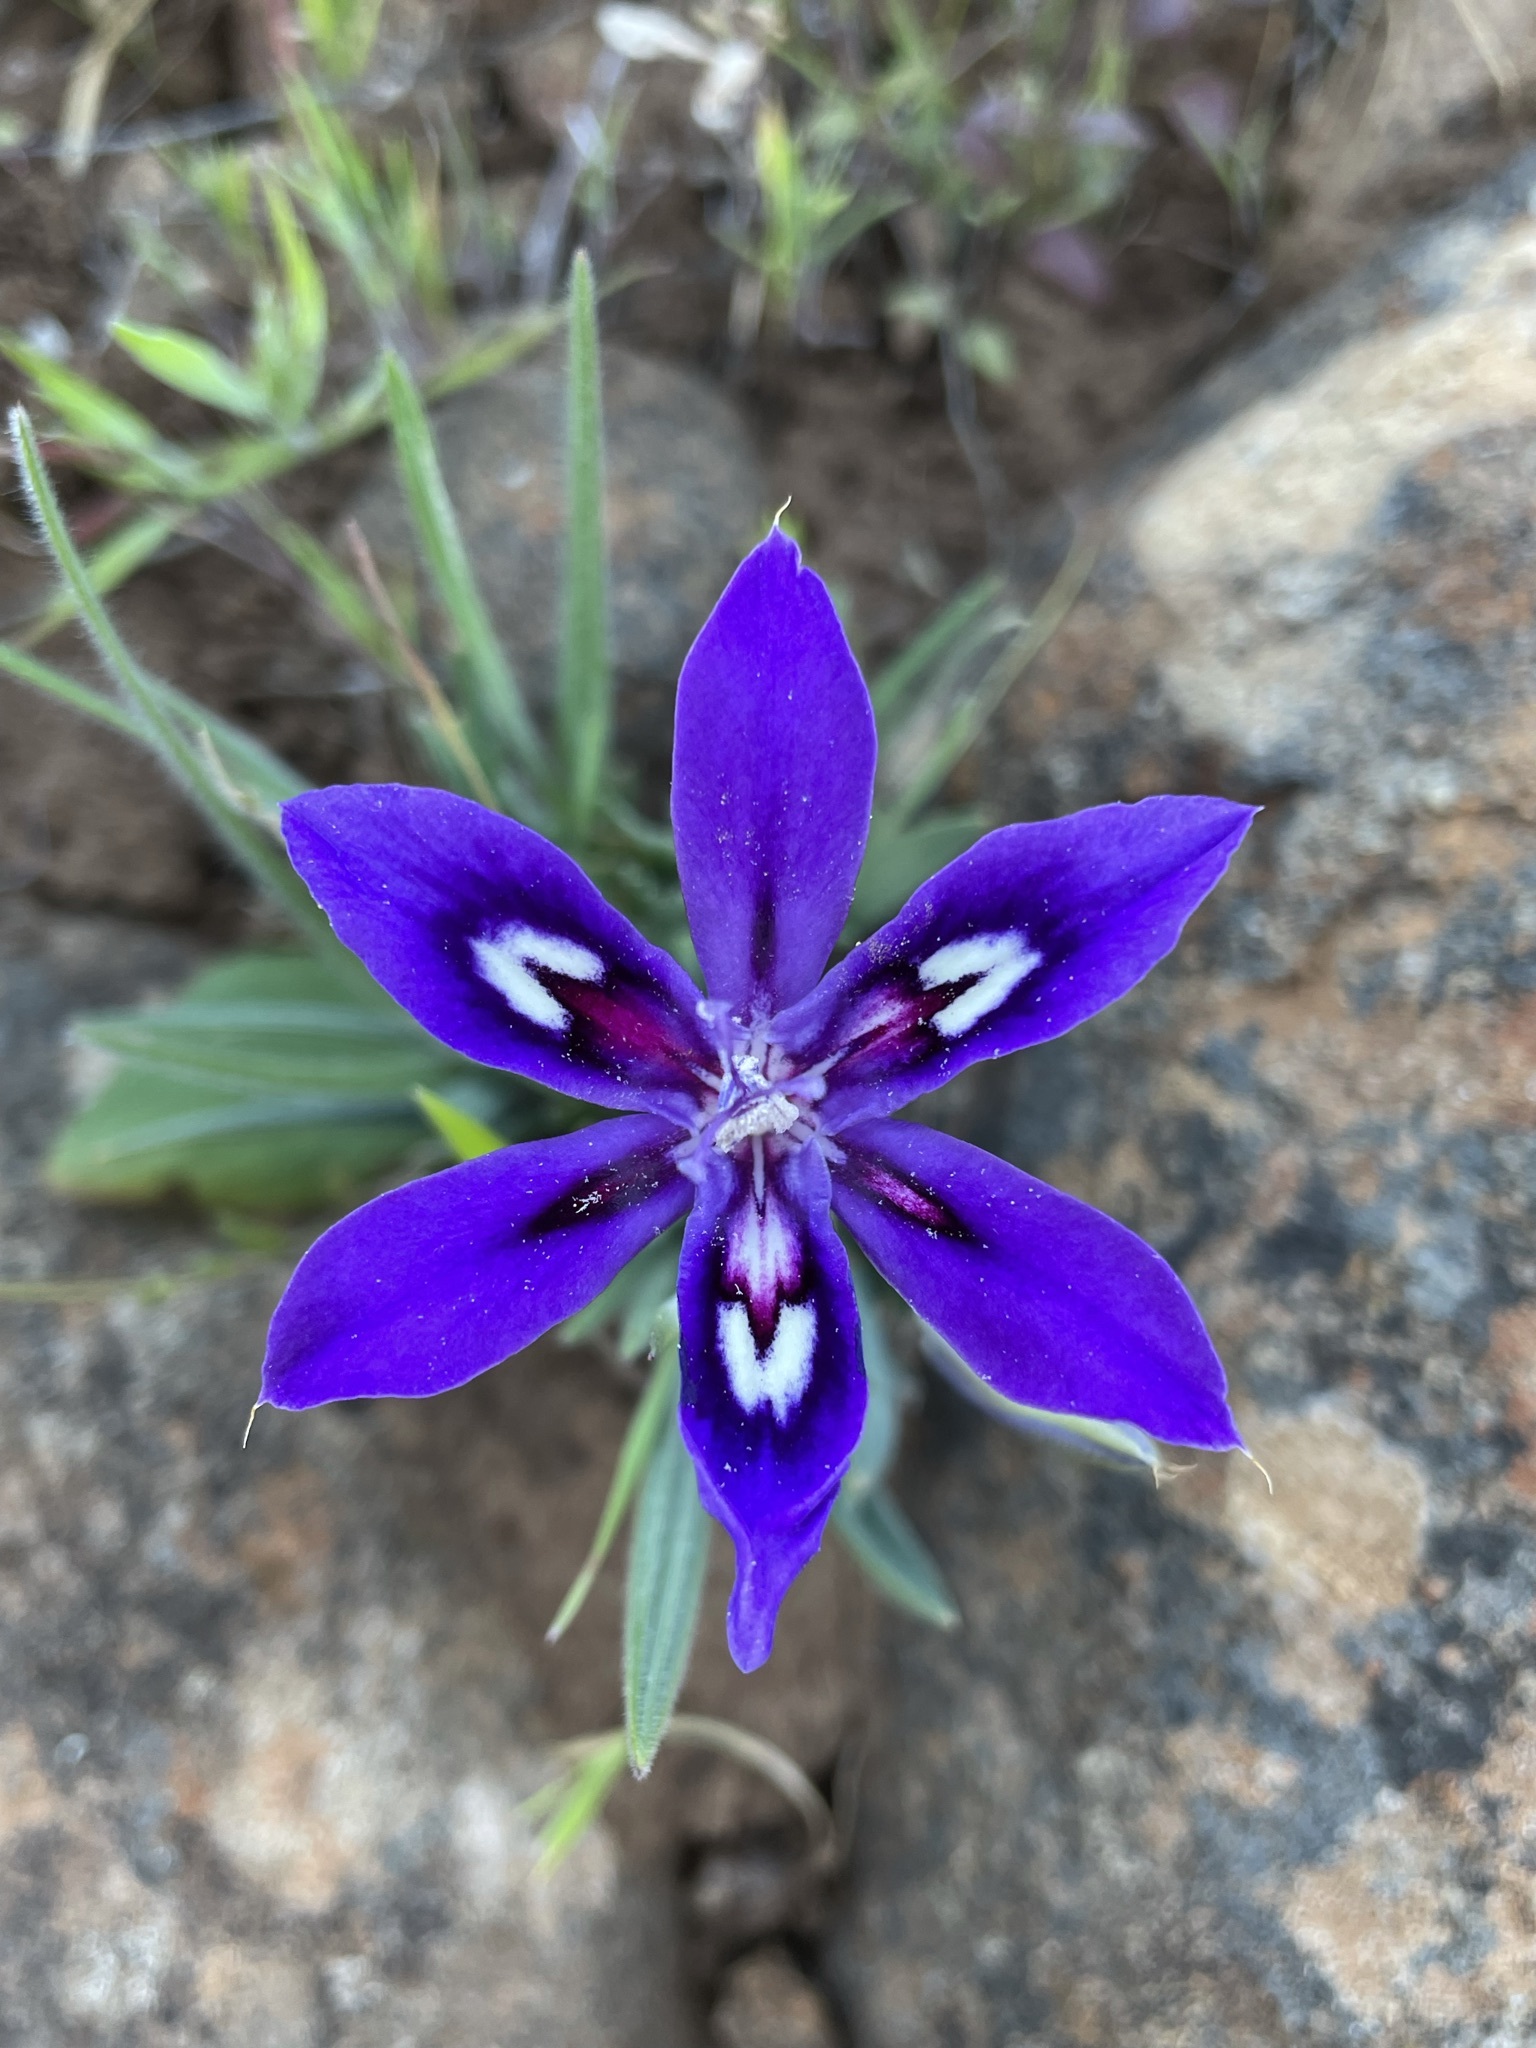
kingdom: Plantae
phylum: Tracheophyta
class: Liliopsida
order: Asparagales
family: Iridaceae
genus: Babiana
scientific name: Babiana framesii
